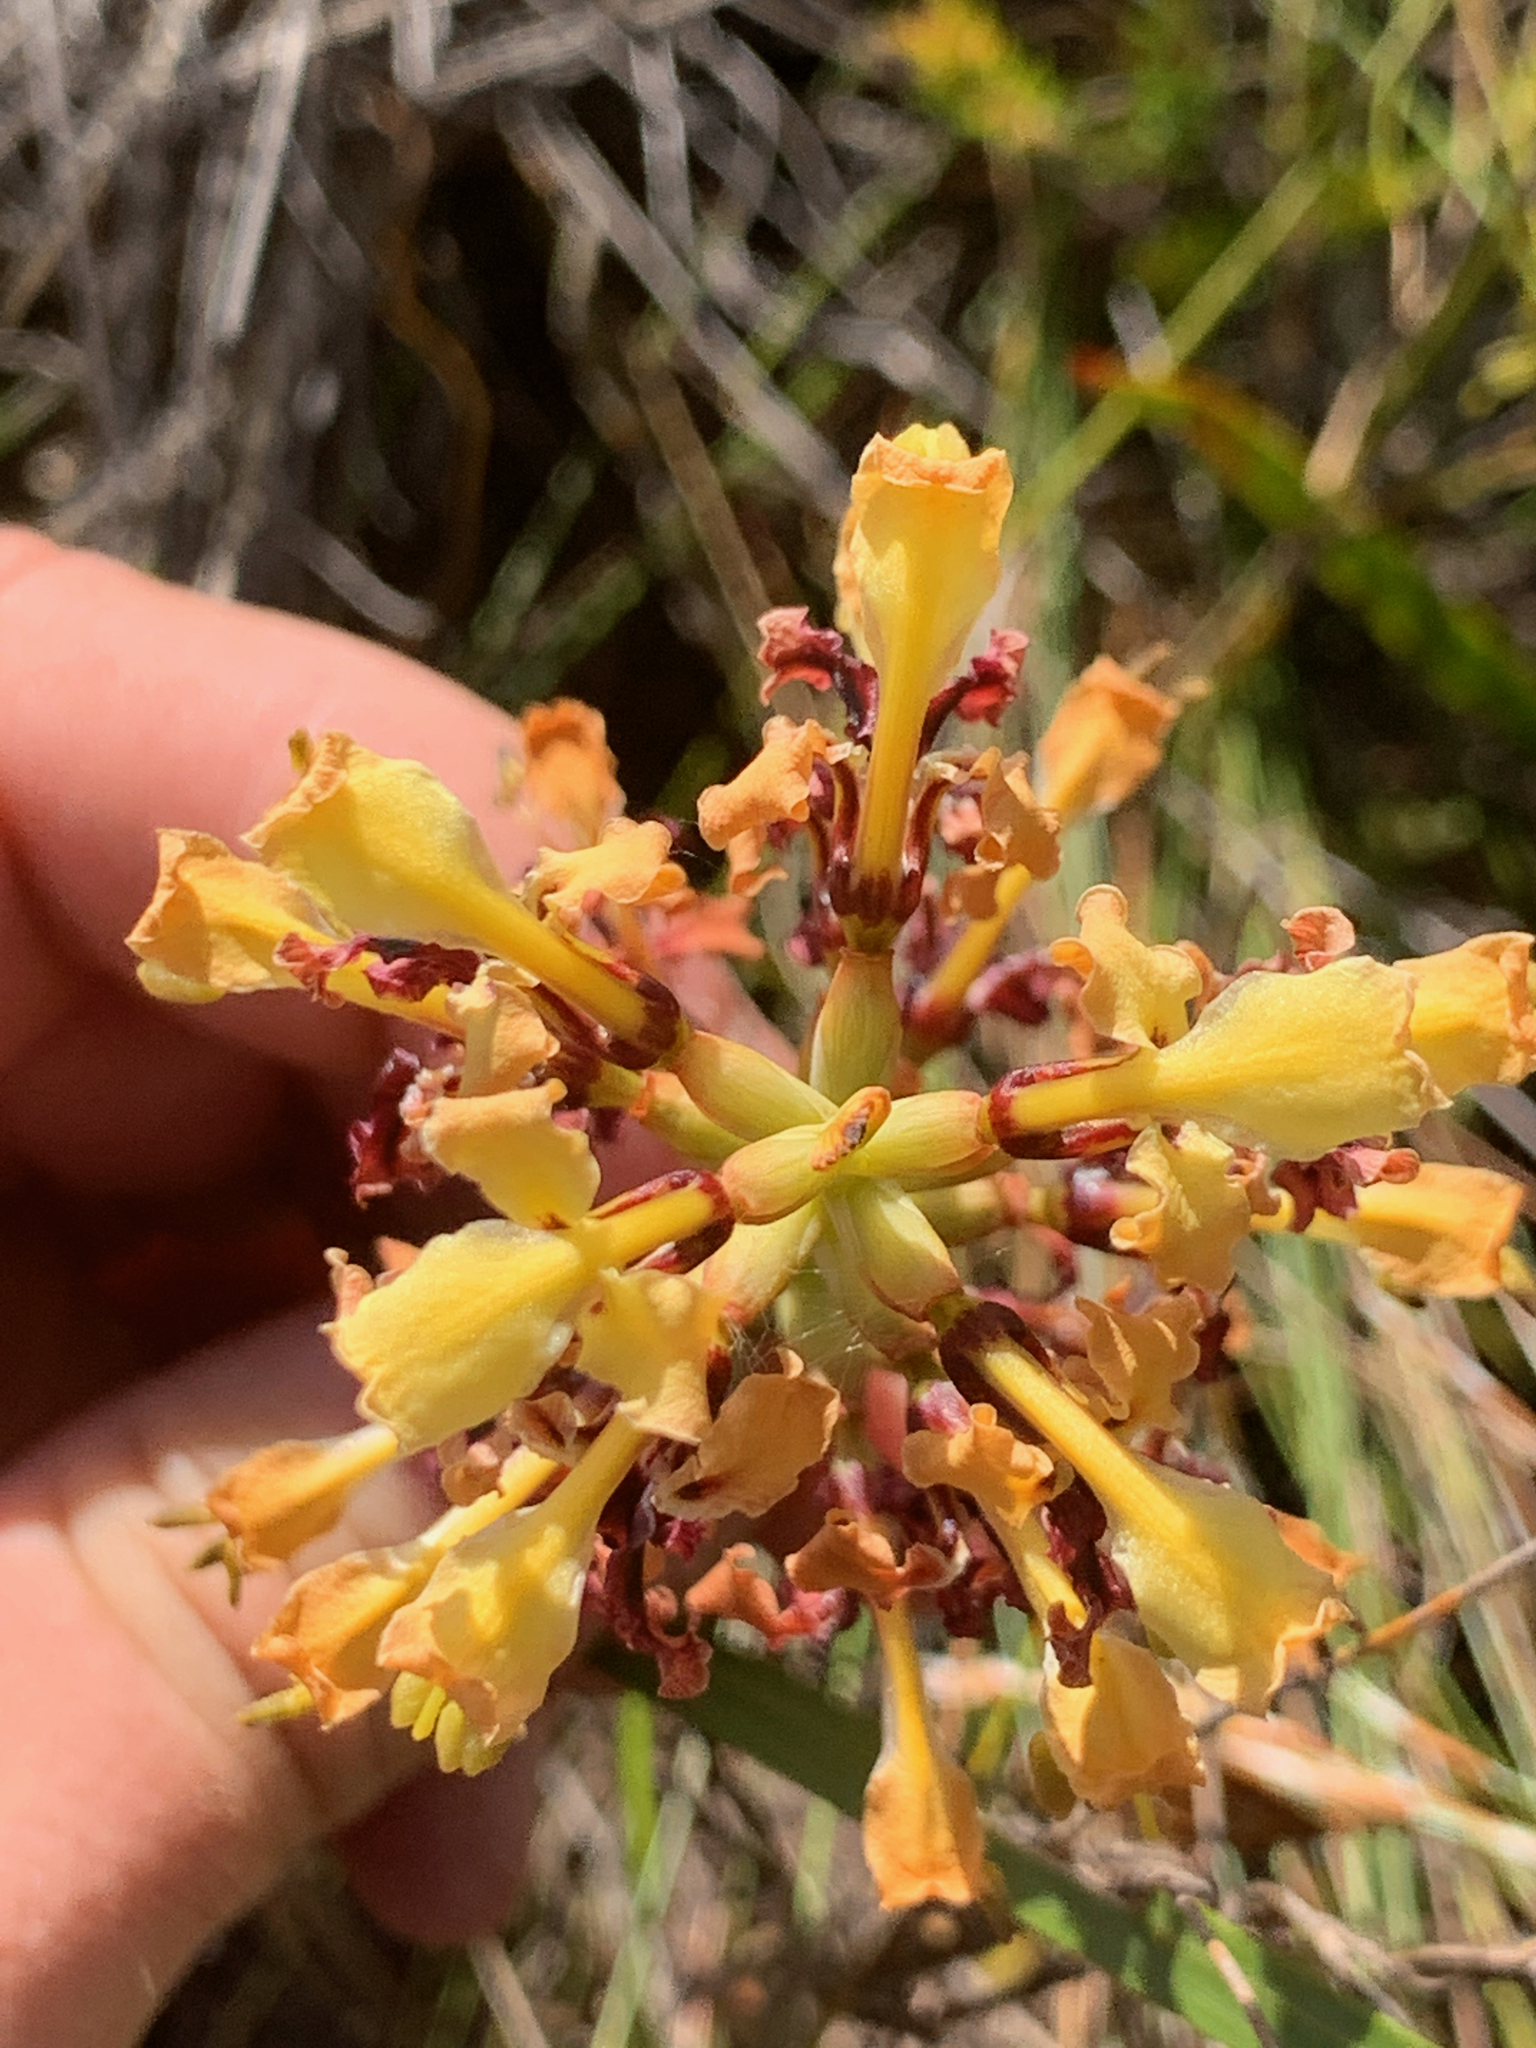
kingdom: Plantae
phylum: Tracheophyta
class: Liliopsida
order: Asparagales
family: Iridaceae
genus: Tritoniopsis
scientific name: Tritoniopsis parviflora
